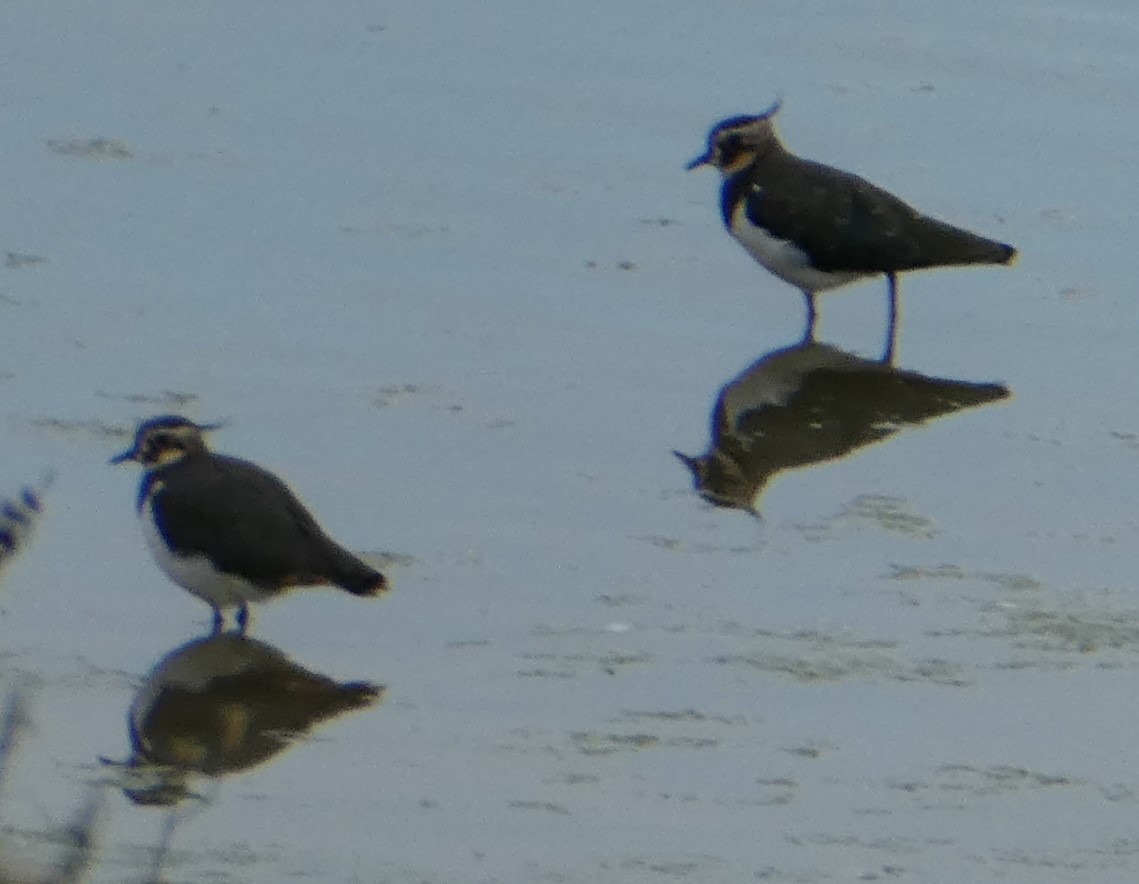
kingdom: Animalia
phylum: Chordata
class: Aves
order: Charadriiformes
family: Charadriidae
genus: Vanellus
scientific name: Vanellus vanellus
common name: Northern lapwing
